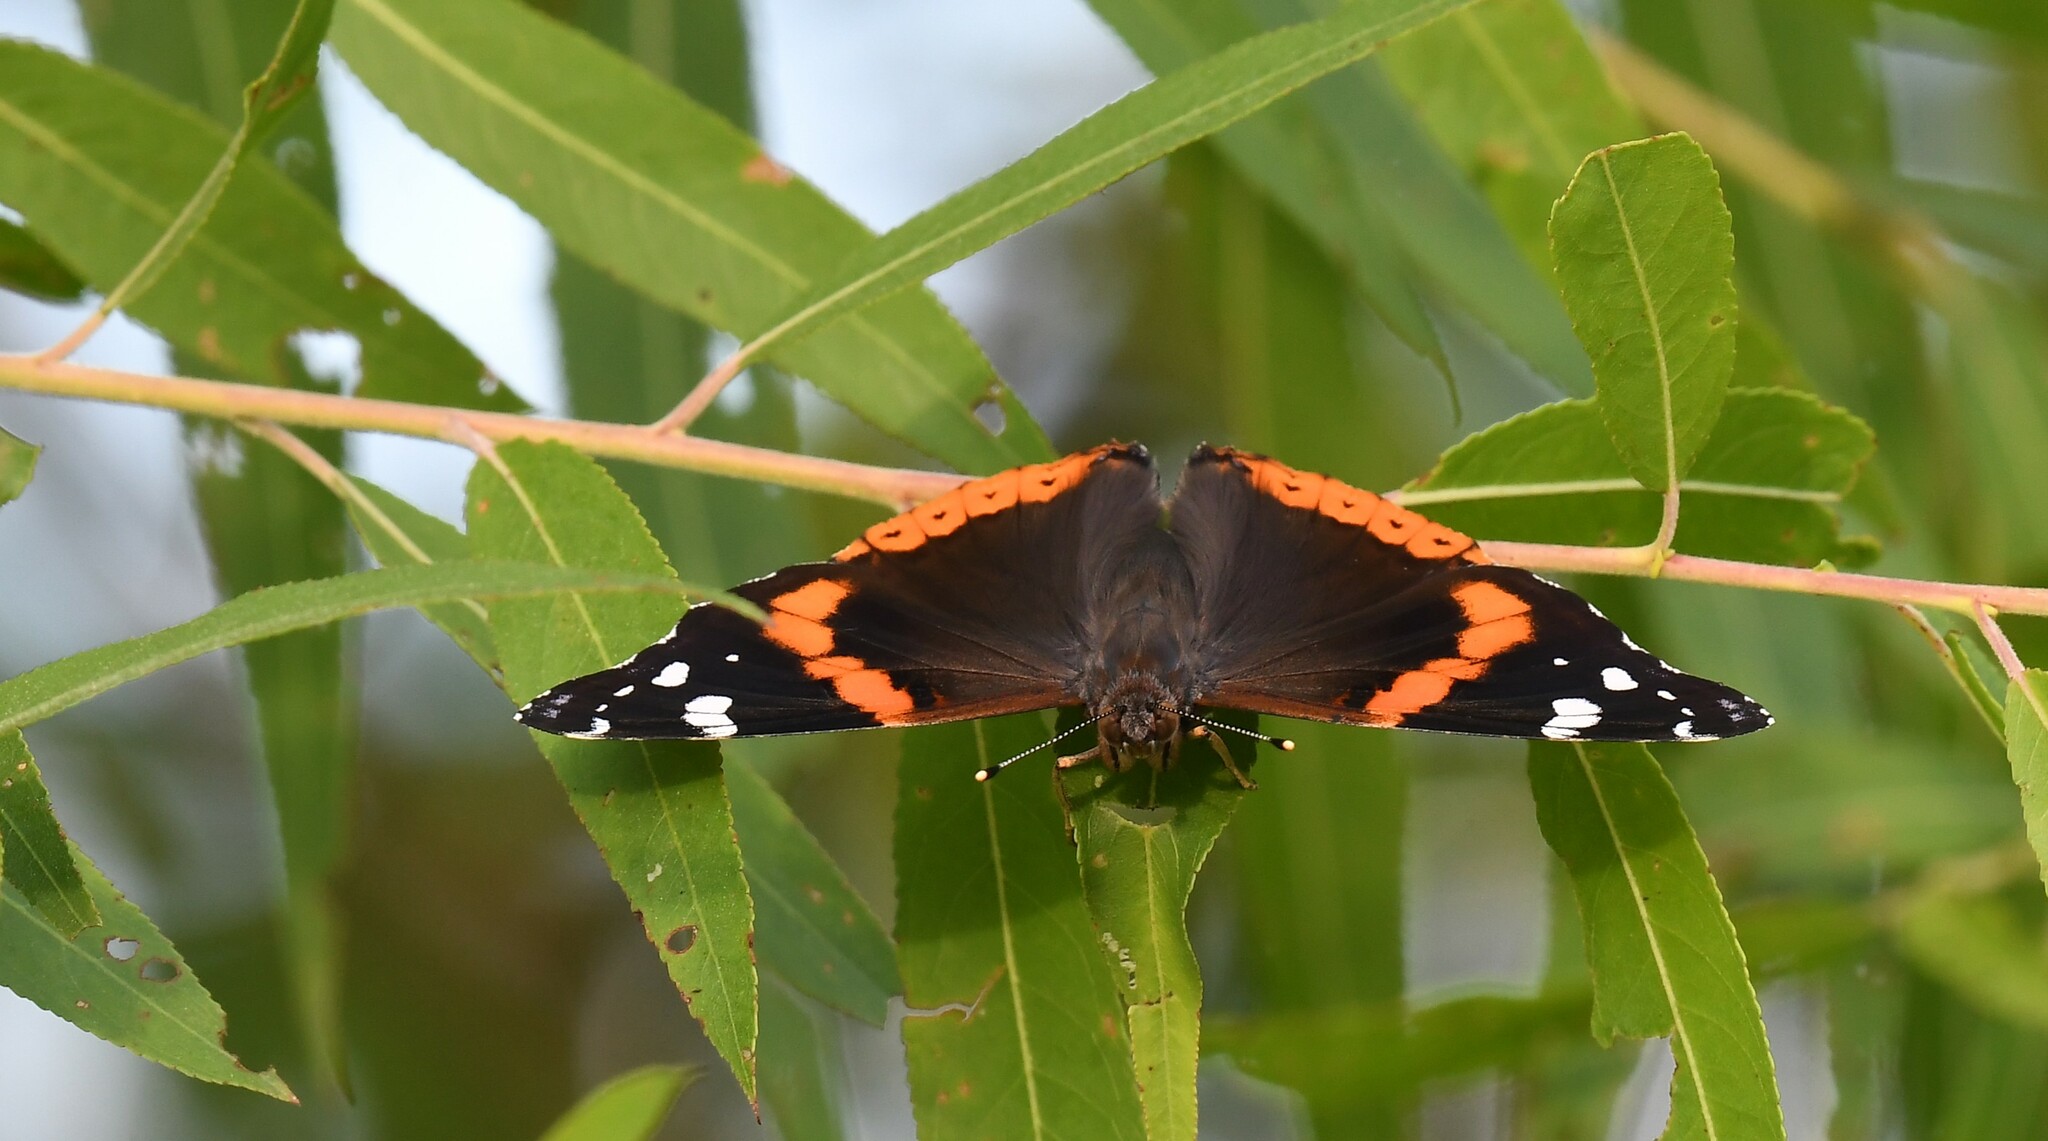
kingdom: Animalia
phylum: Arthropoda
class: Insecta
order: Lepidoptera
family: Nymphalidae
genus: Vanessa
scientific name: Vanessa atalanta
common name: Red admiral
